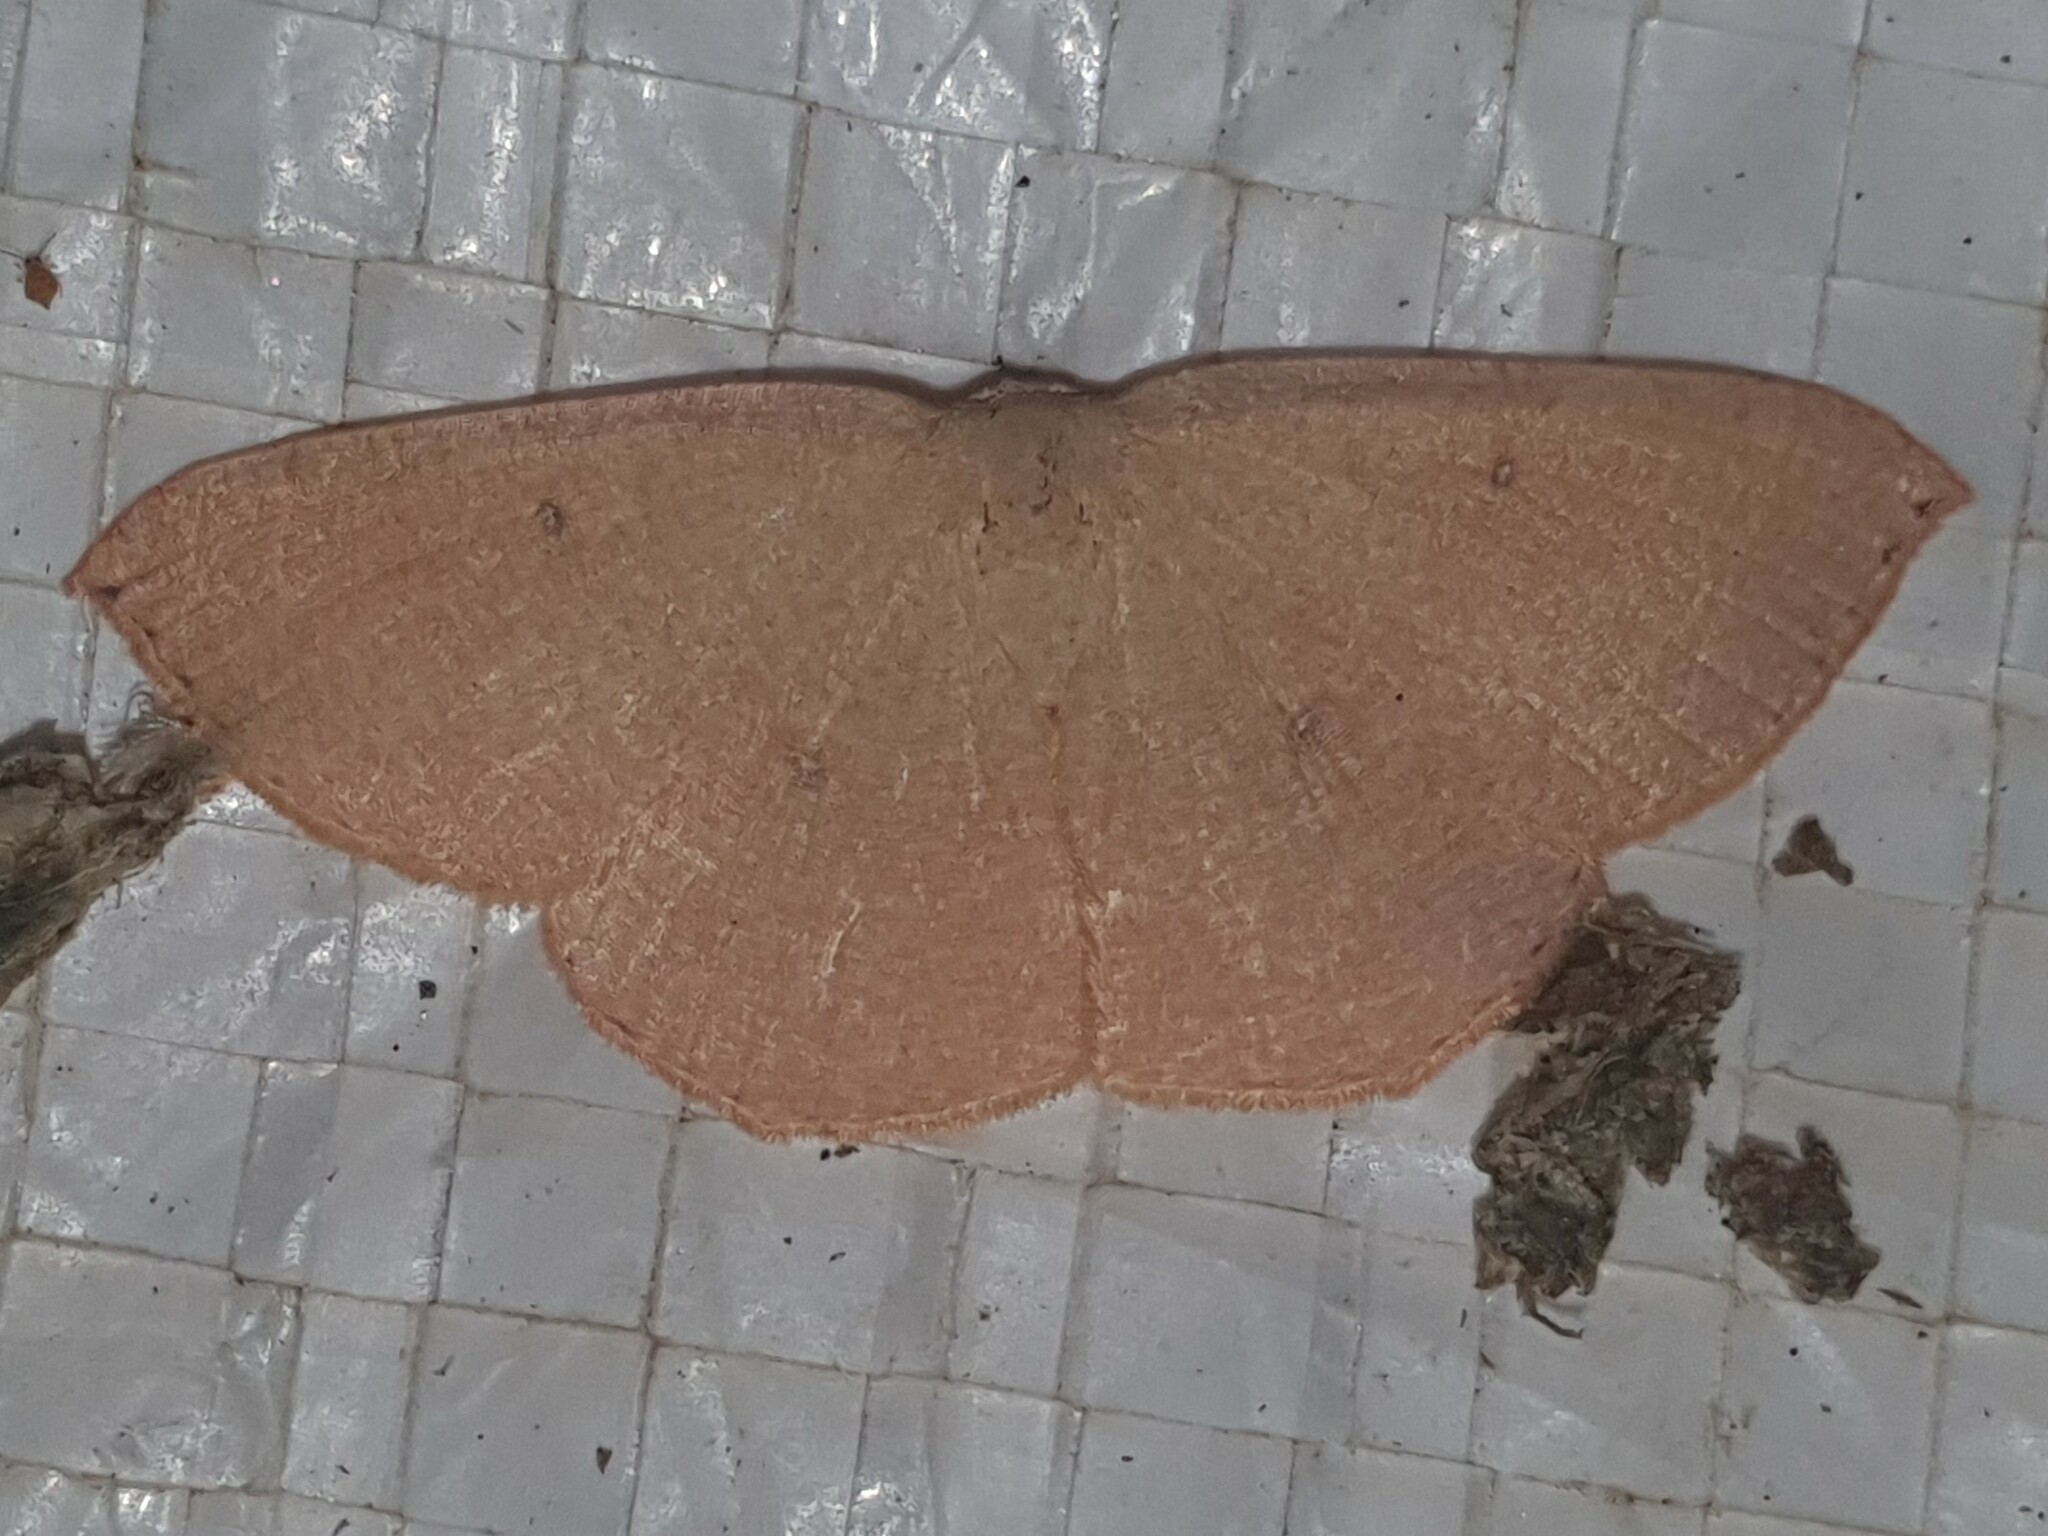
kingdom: Animalia
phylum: Arthropoda
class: Insecta
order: Lepidoptera
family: Geometridae
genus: Cyclophora
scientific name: Cyclophora puppillaria
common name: Blair's mocha
